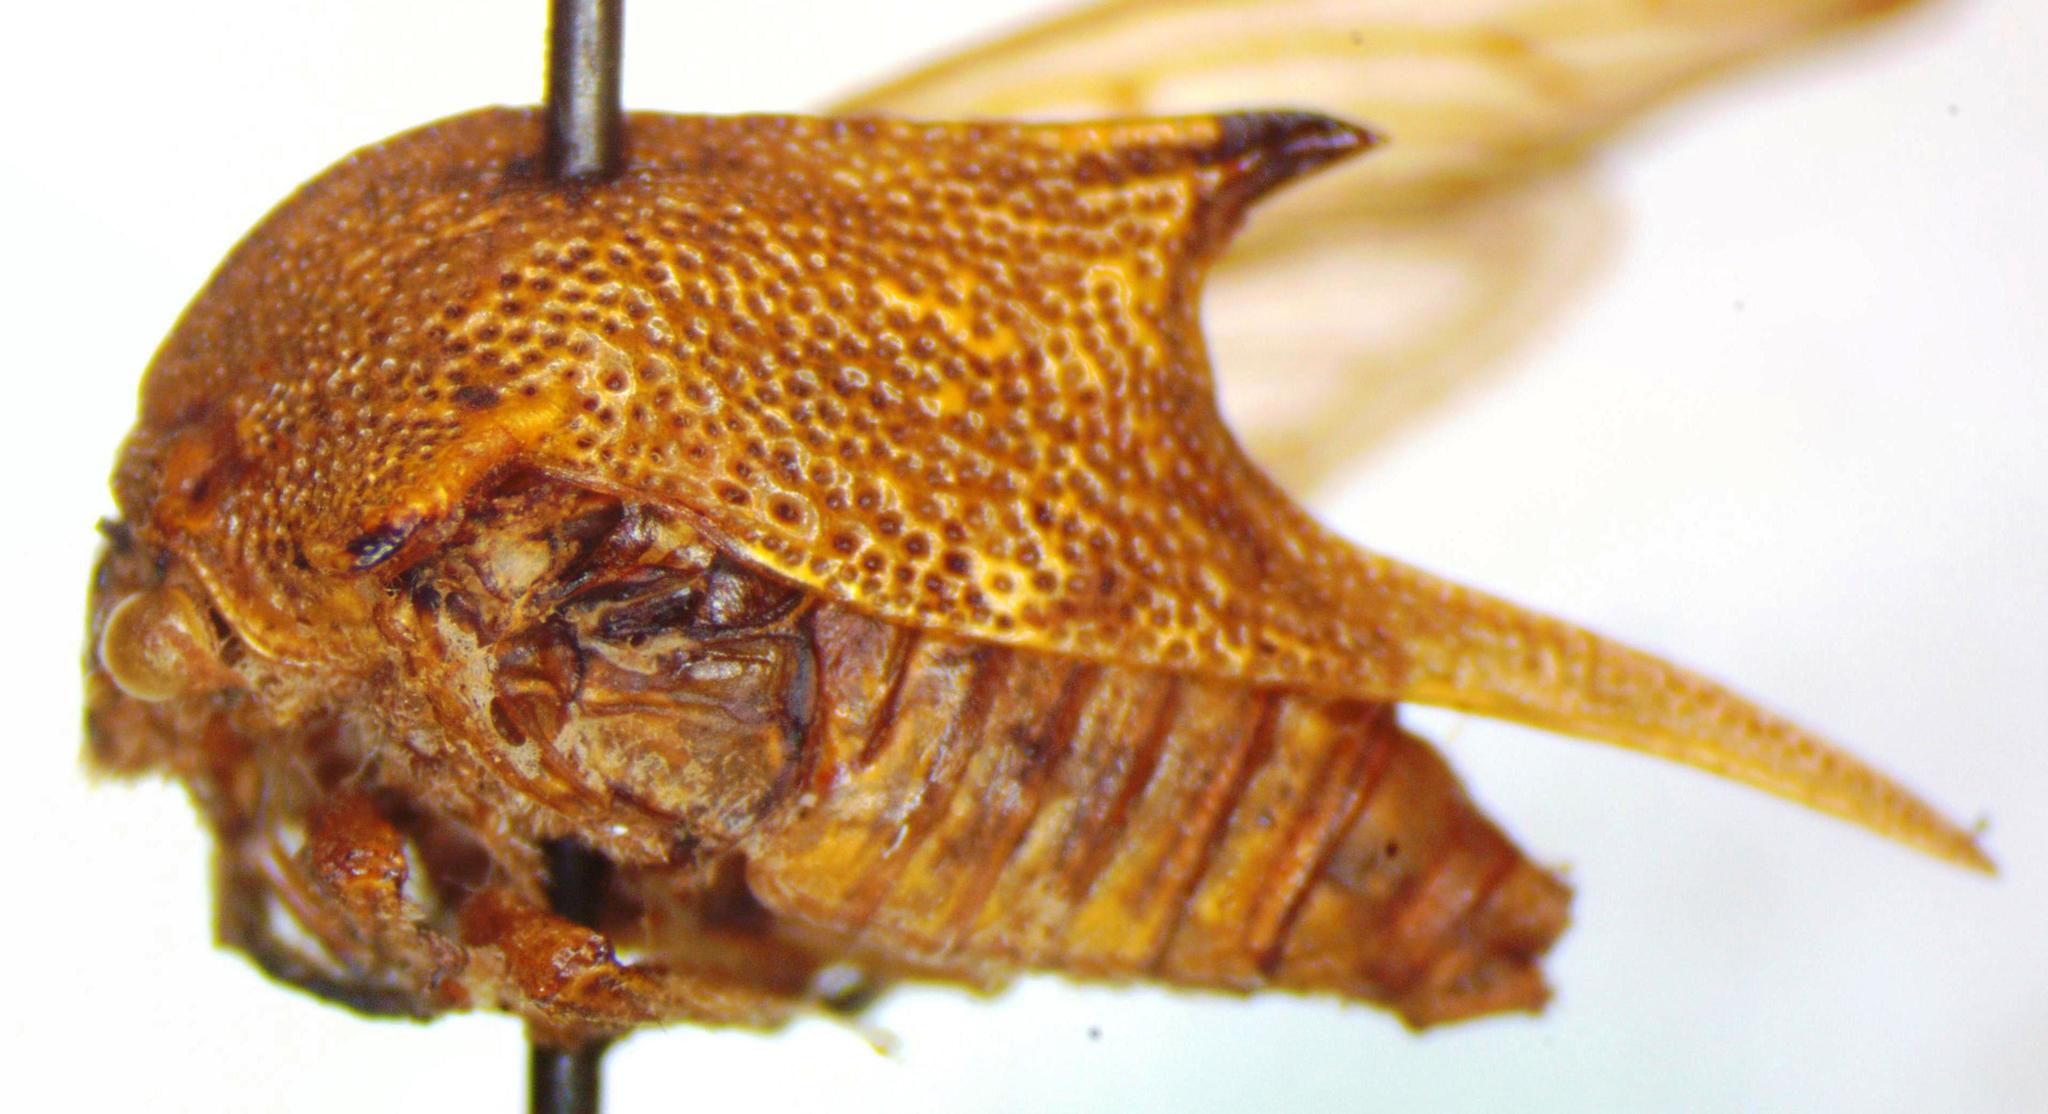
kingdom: Animalia
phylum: Arthropoda
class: Insecta
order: Hemiptera
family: Membracidae
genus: Umbonia
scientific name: Umbonia reclinata
